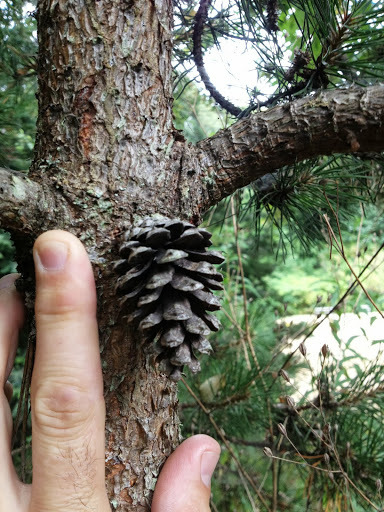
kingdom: Plantae
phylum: Tracheophyta
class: Pinopsida
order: Pinales
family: Pinaceae
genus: Pinus
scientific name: Pinus contorta
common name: Lodgepole pine
